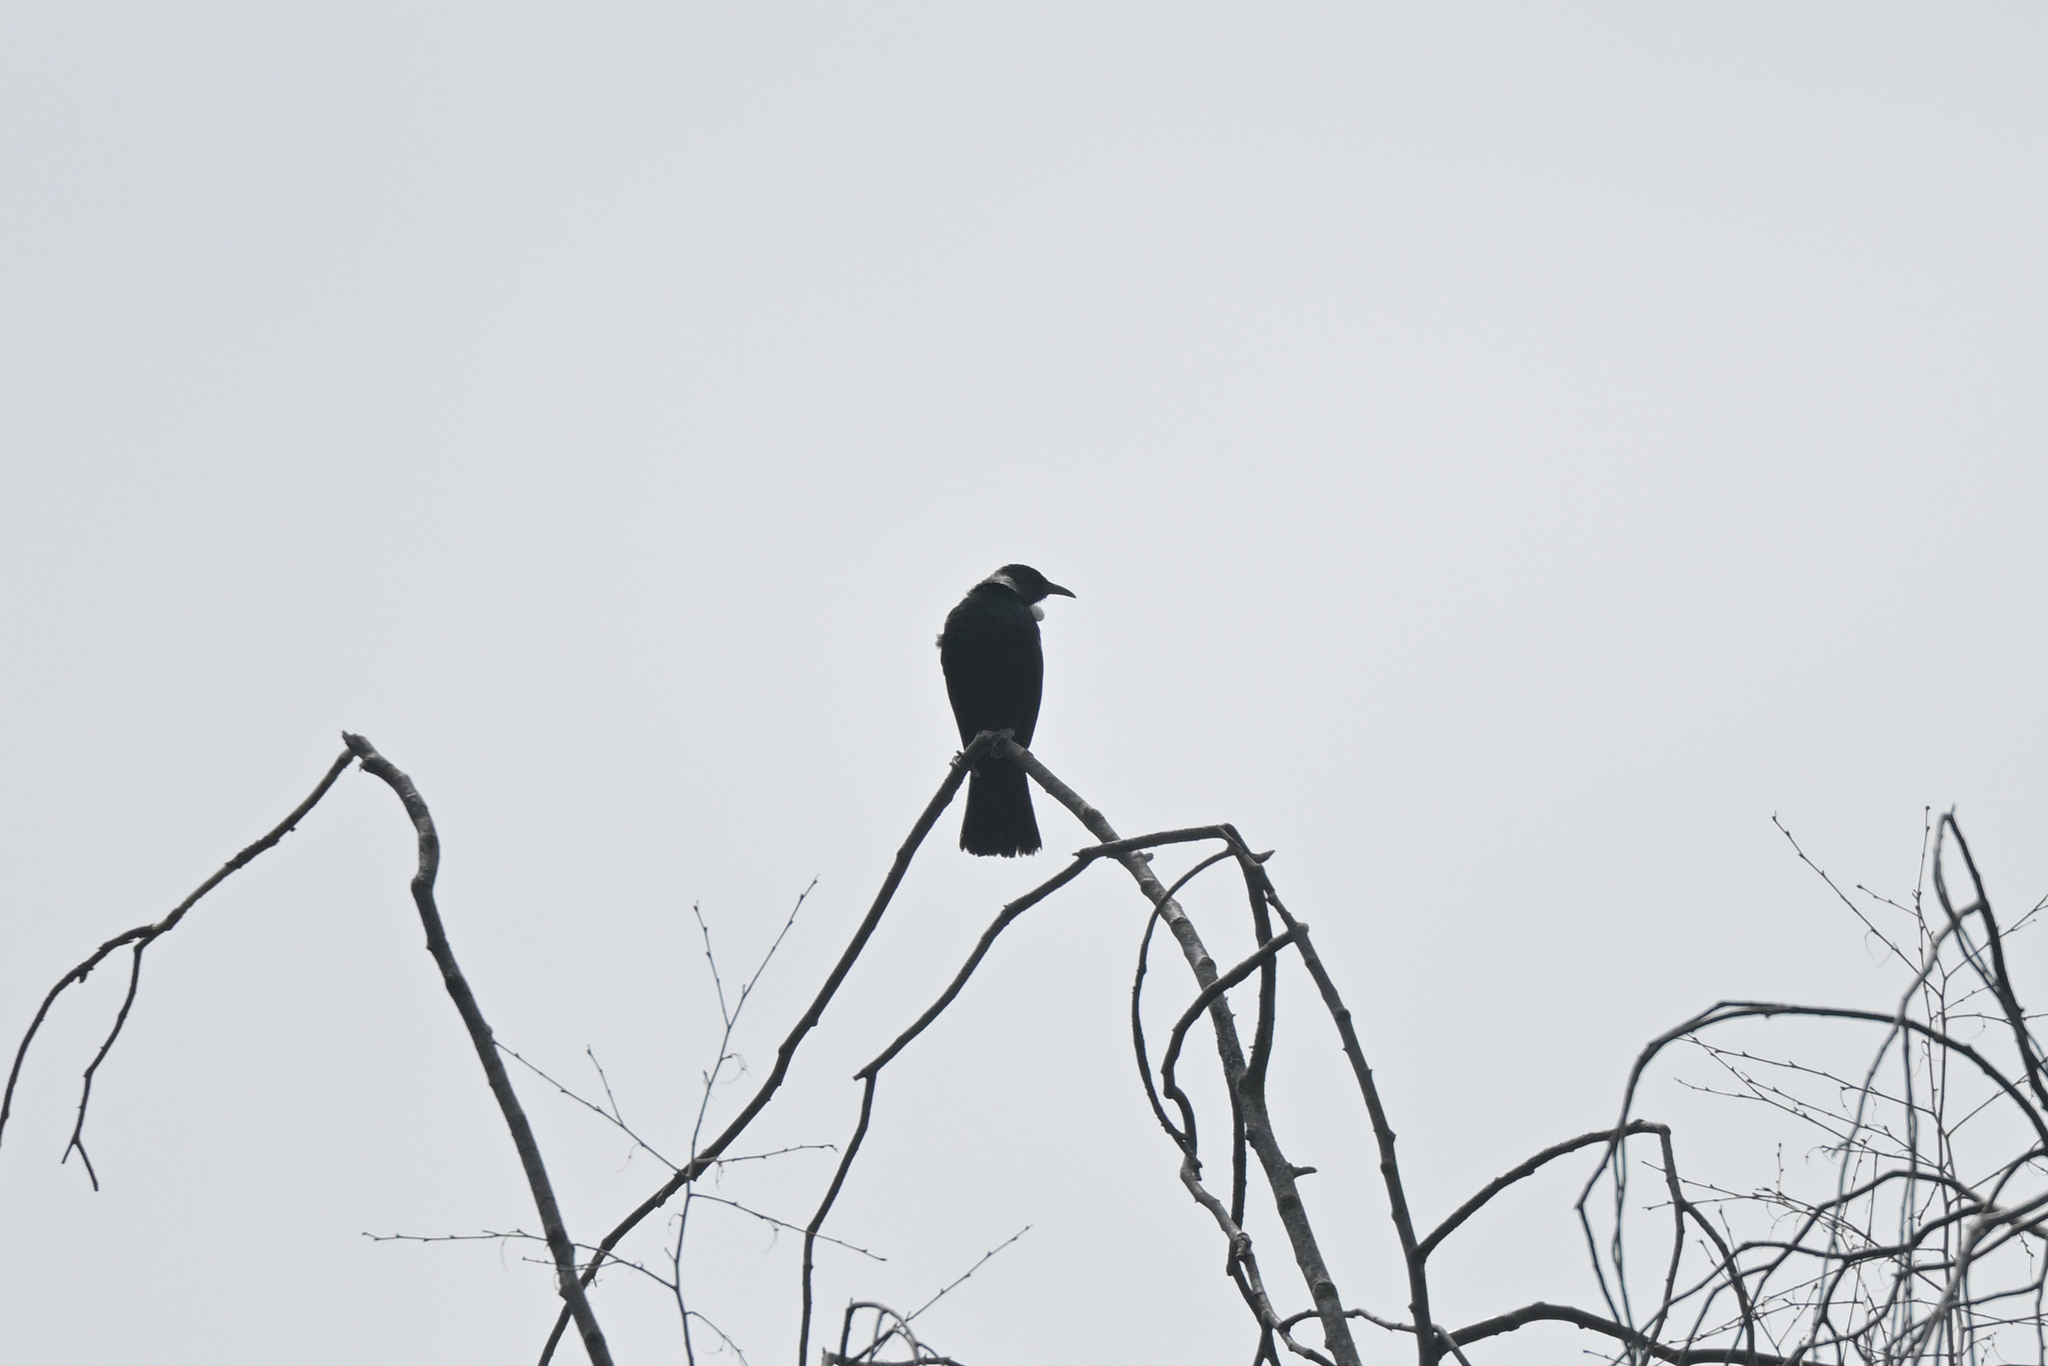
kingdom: Animalia
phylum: Chordata
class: Aves
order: Passeriformes
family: Meliphagidae
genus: Prosthemadera
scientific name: Prosthemadera novaeseelandiae
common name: Tui
